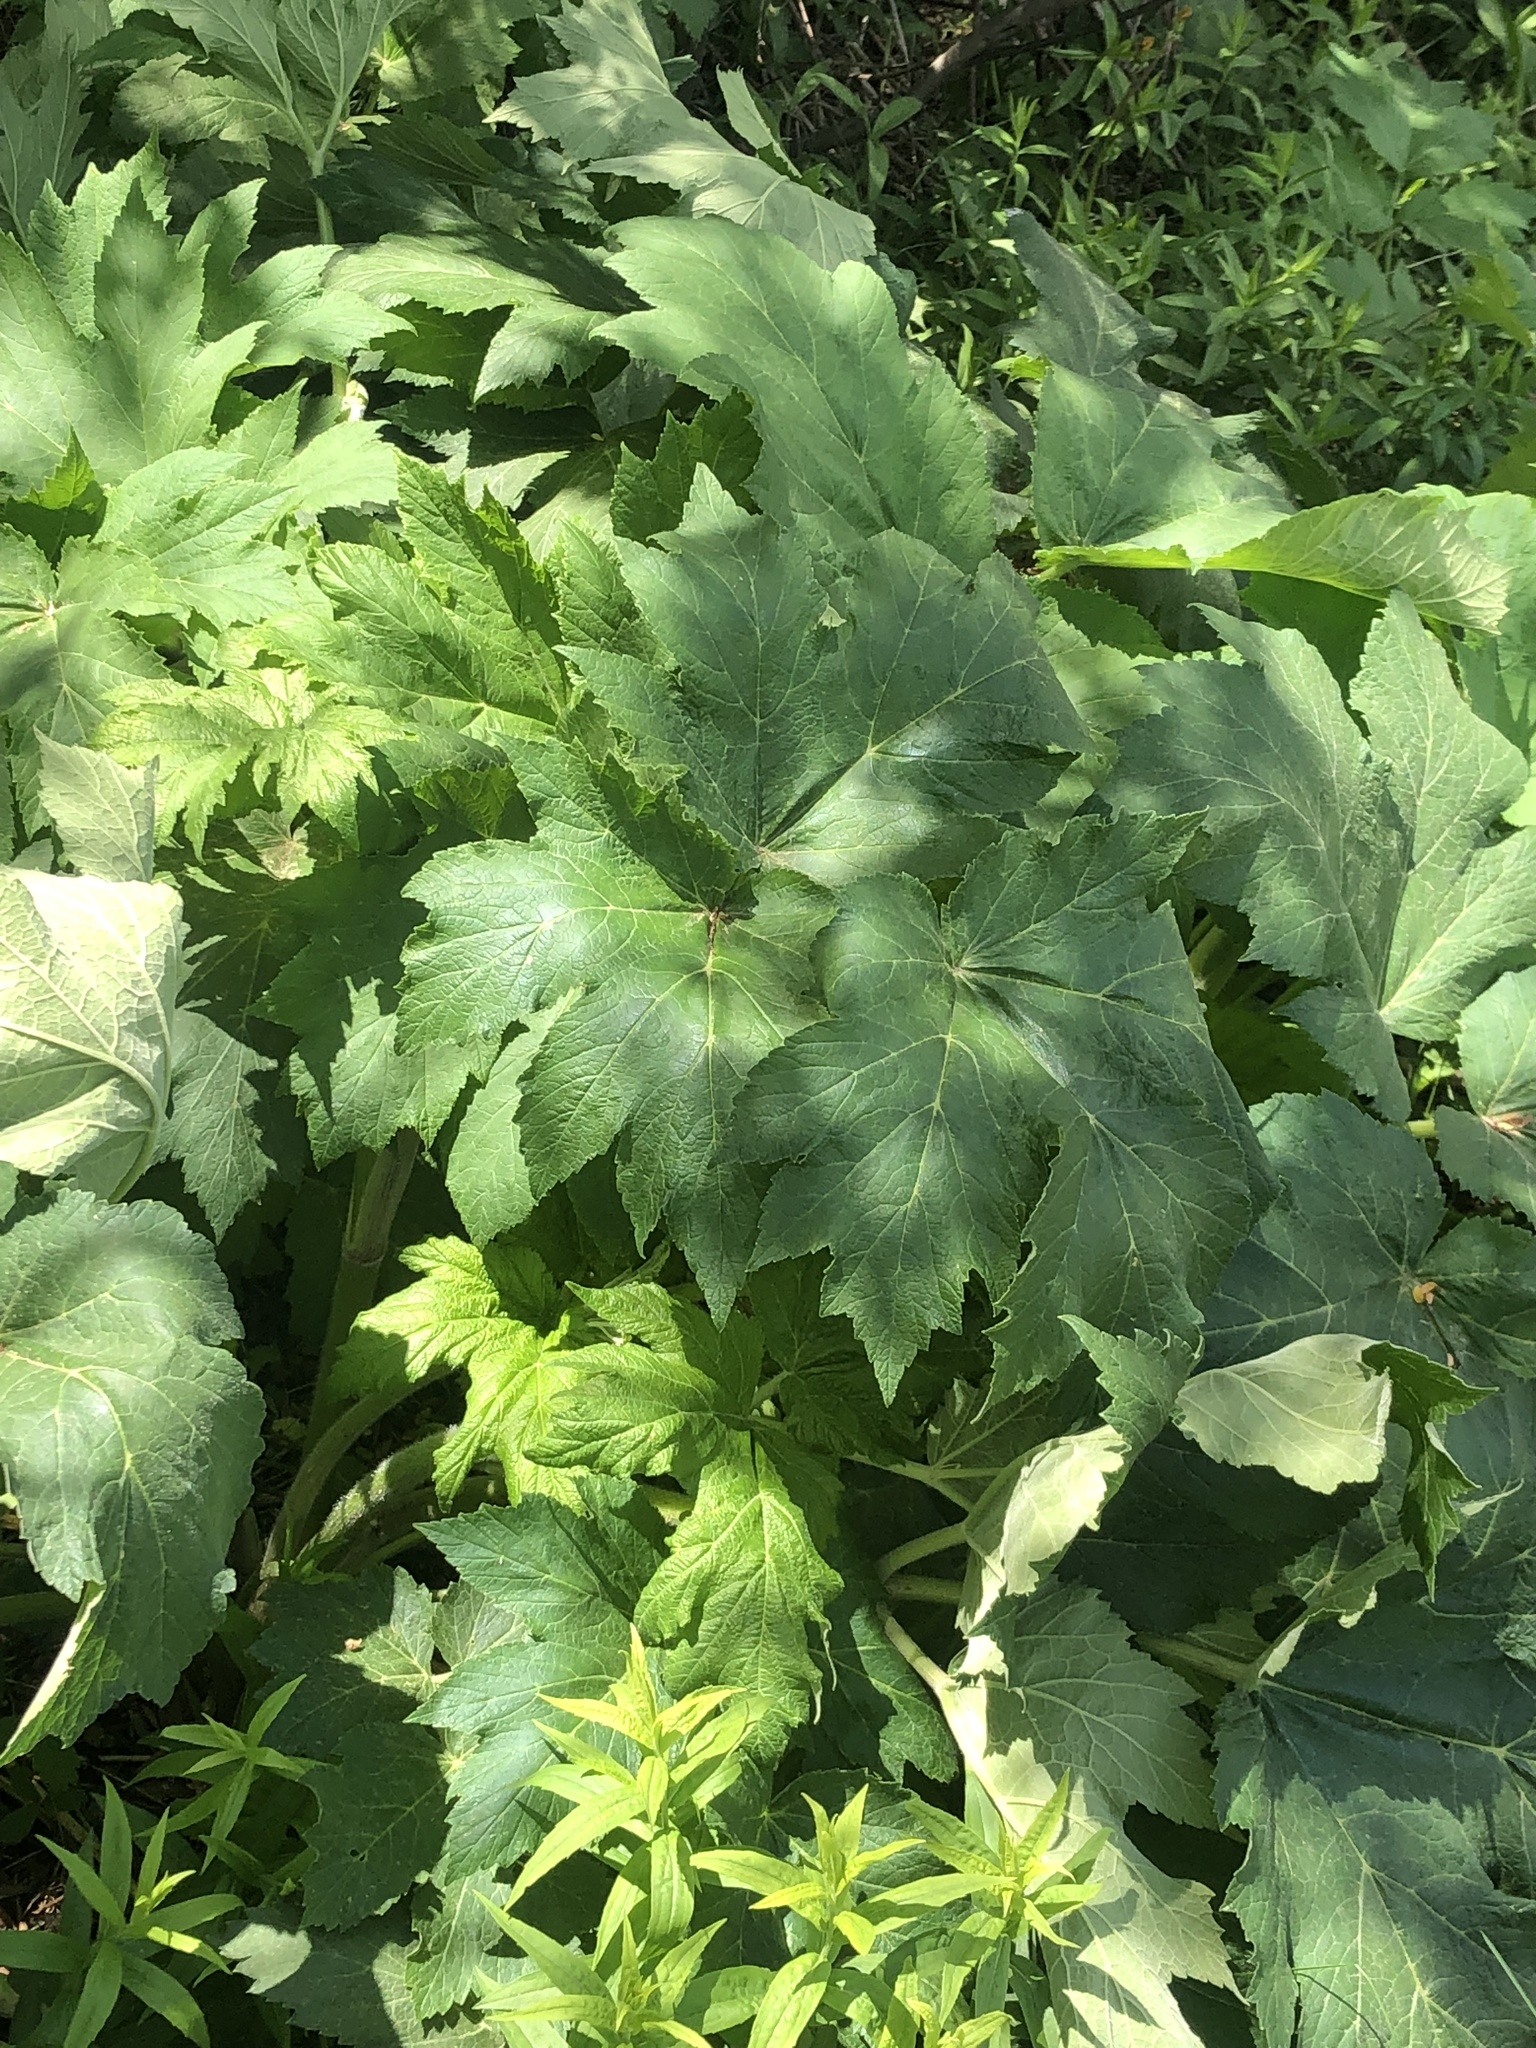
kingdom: Plantae
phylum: Tracheophyta
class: Magnoliopsida
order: Apiales
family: Apiaceae
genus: Heracleum
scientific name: Heracleum maximum
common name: American cow parsnip
